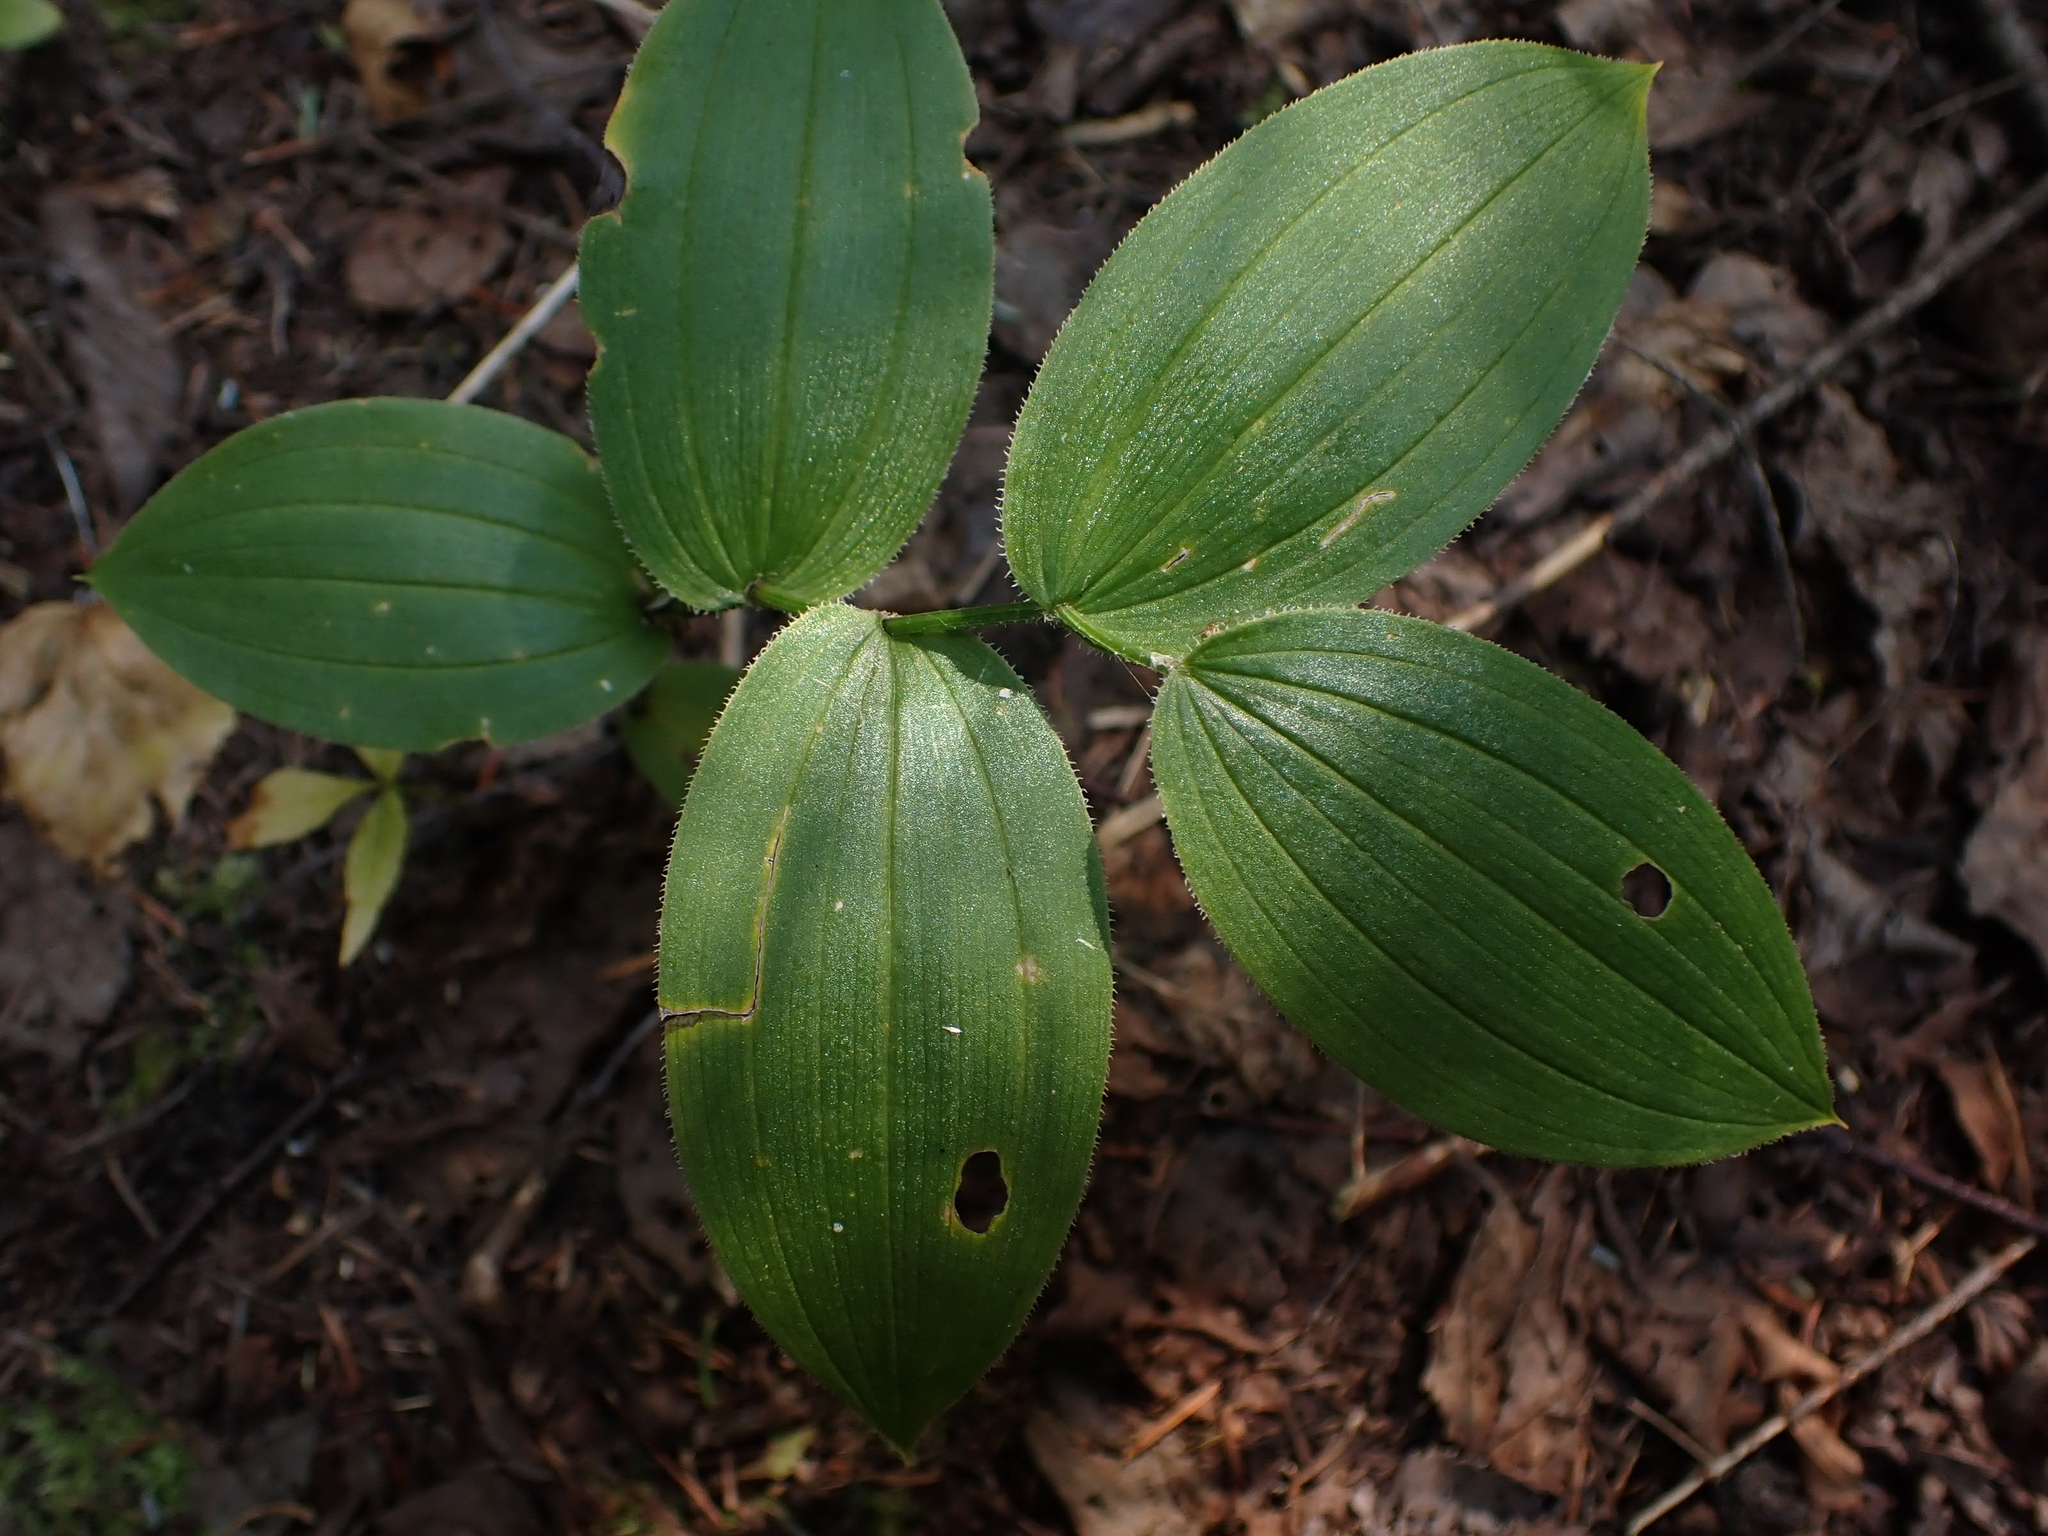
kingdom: Plantae
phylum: Tracheophyta
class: Liliopsida
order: Liliales
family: Liliaceae
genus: Streptopus
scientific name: Streptopus lanceolatus
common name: Rose mandarin
